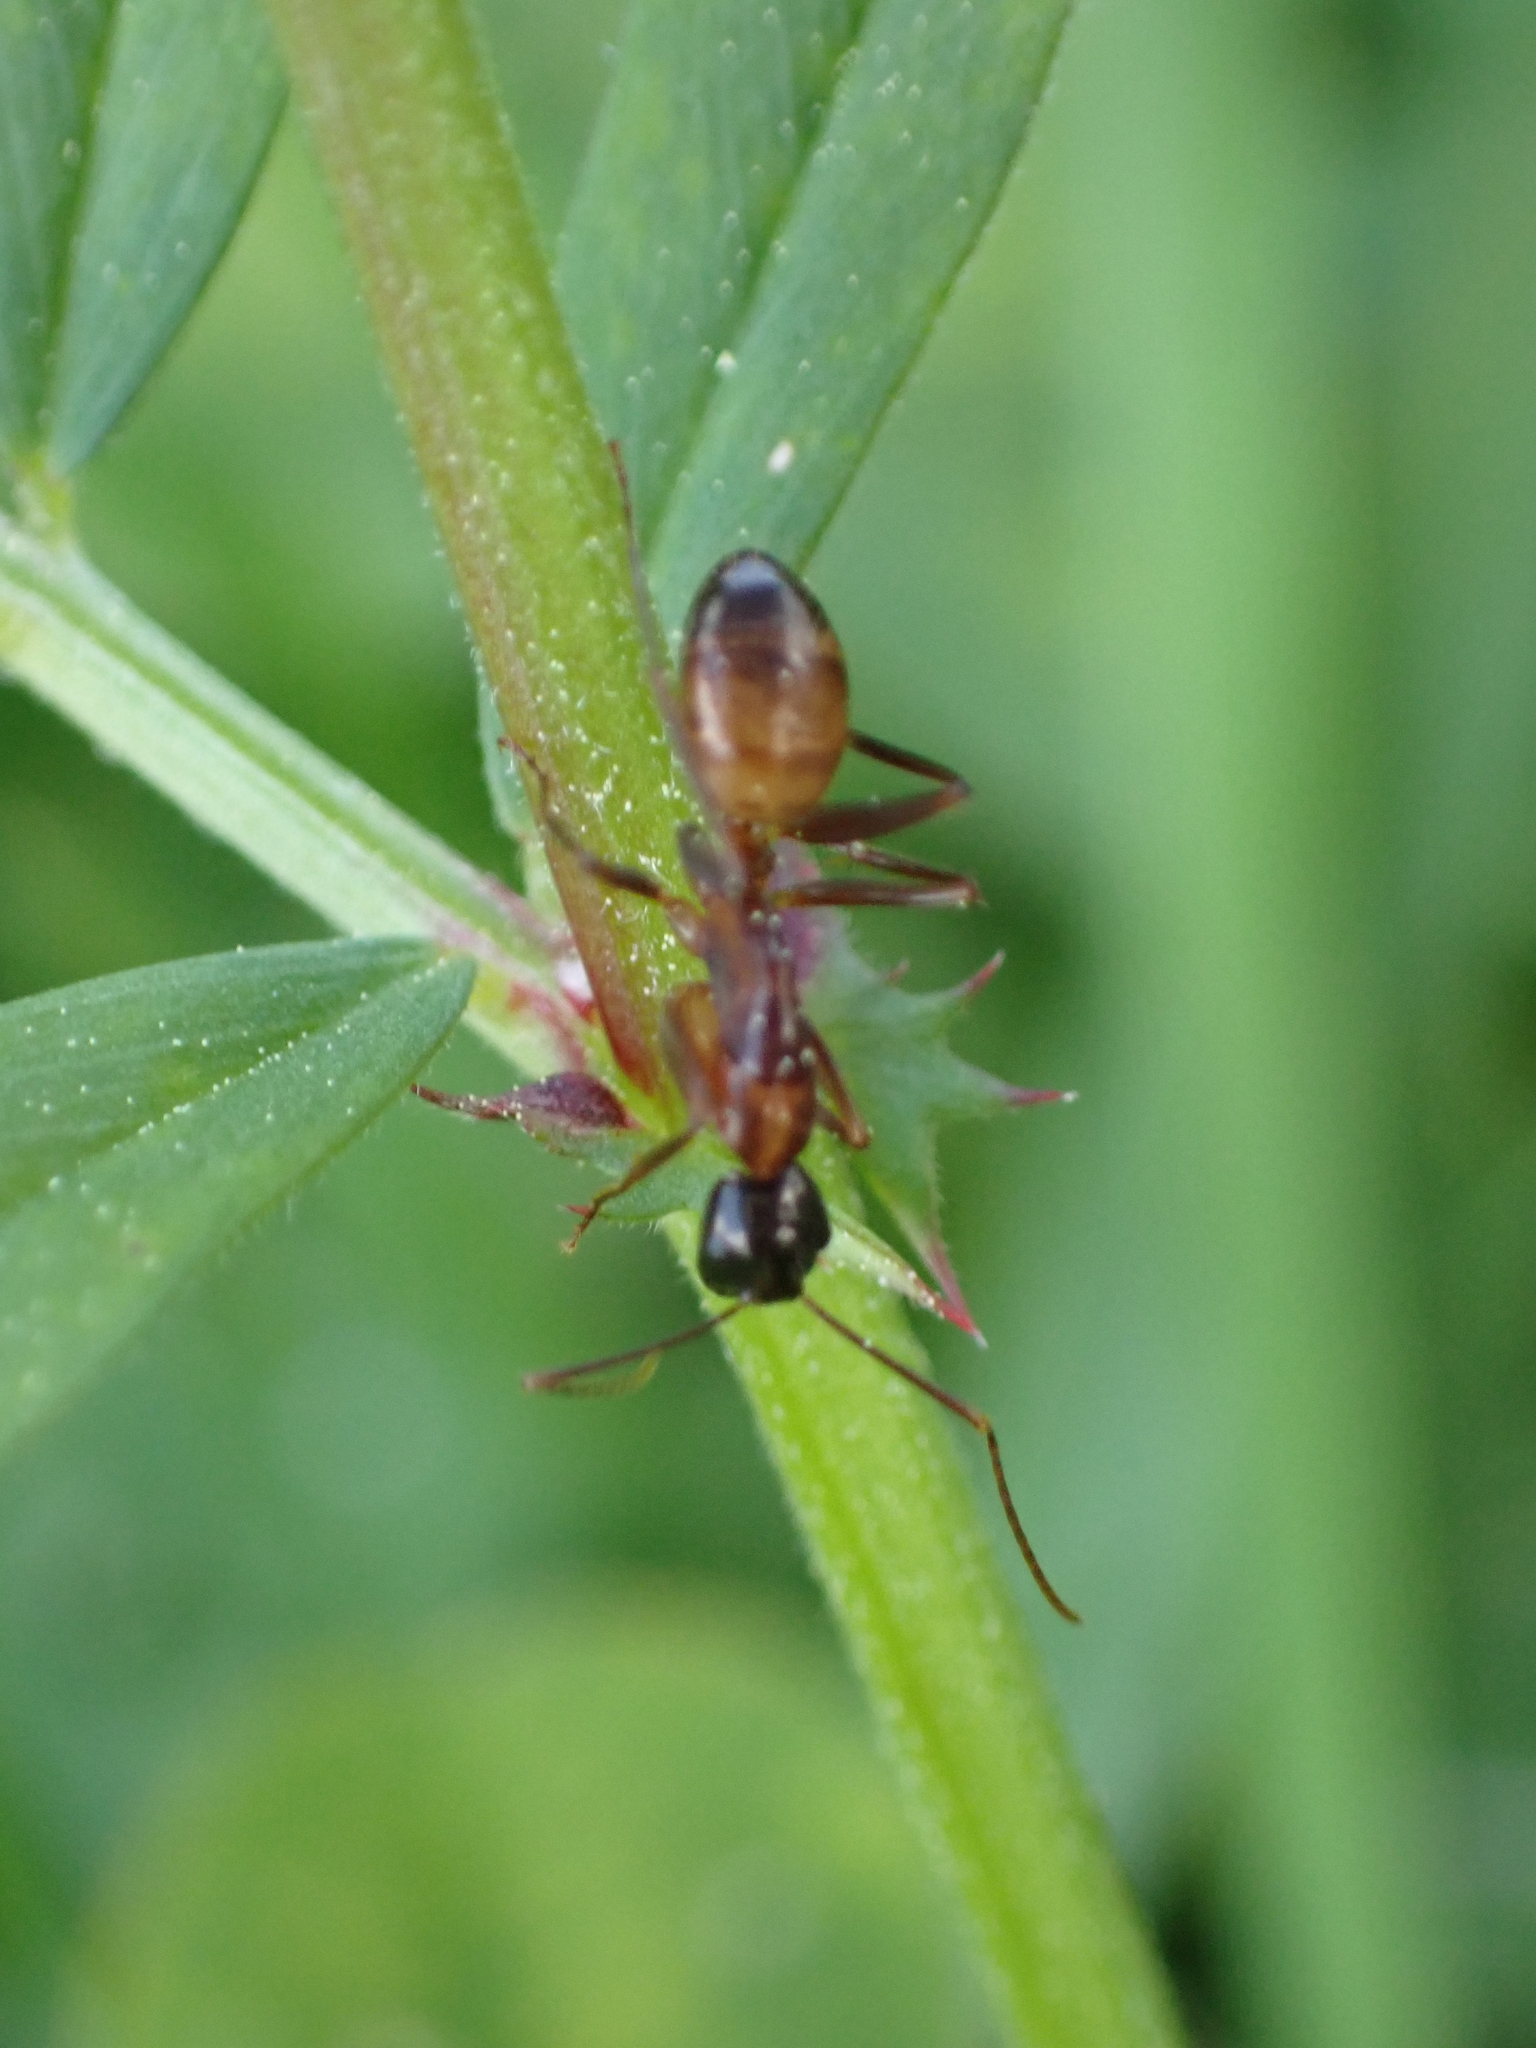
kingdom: Animalia
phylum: Arthropoda
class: Insecta
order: Hymenoptera
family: Formicidae
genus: Camponotus
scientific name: Camponotus americanus
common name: American carpenter ant
